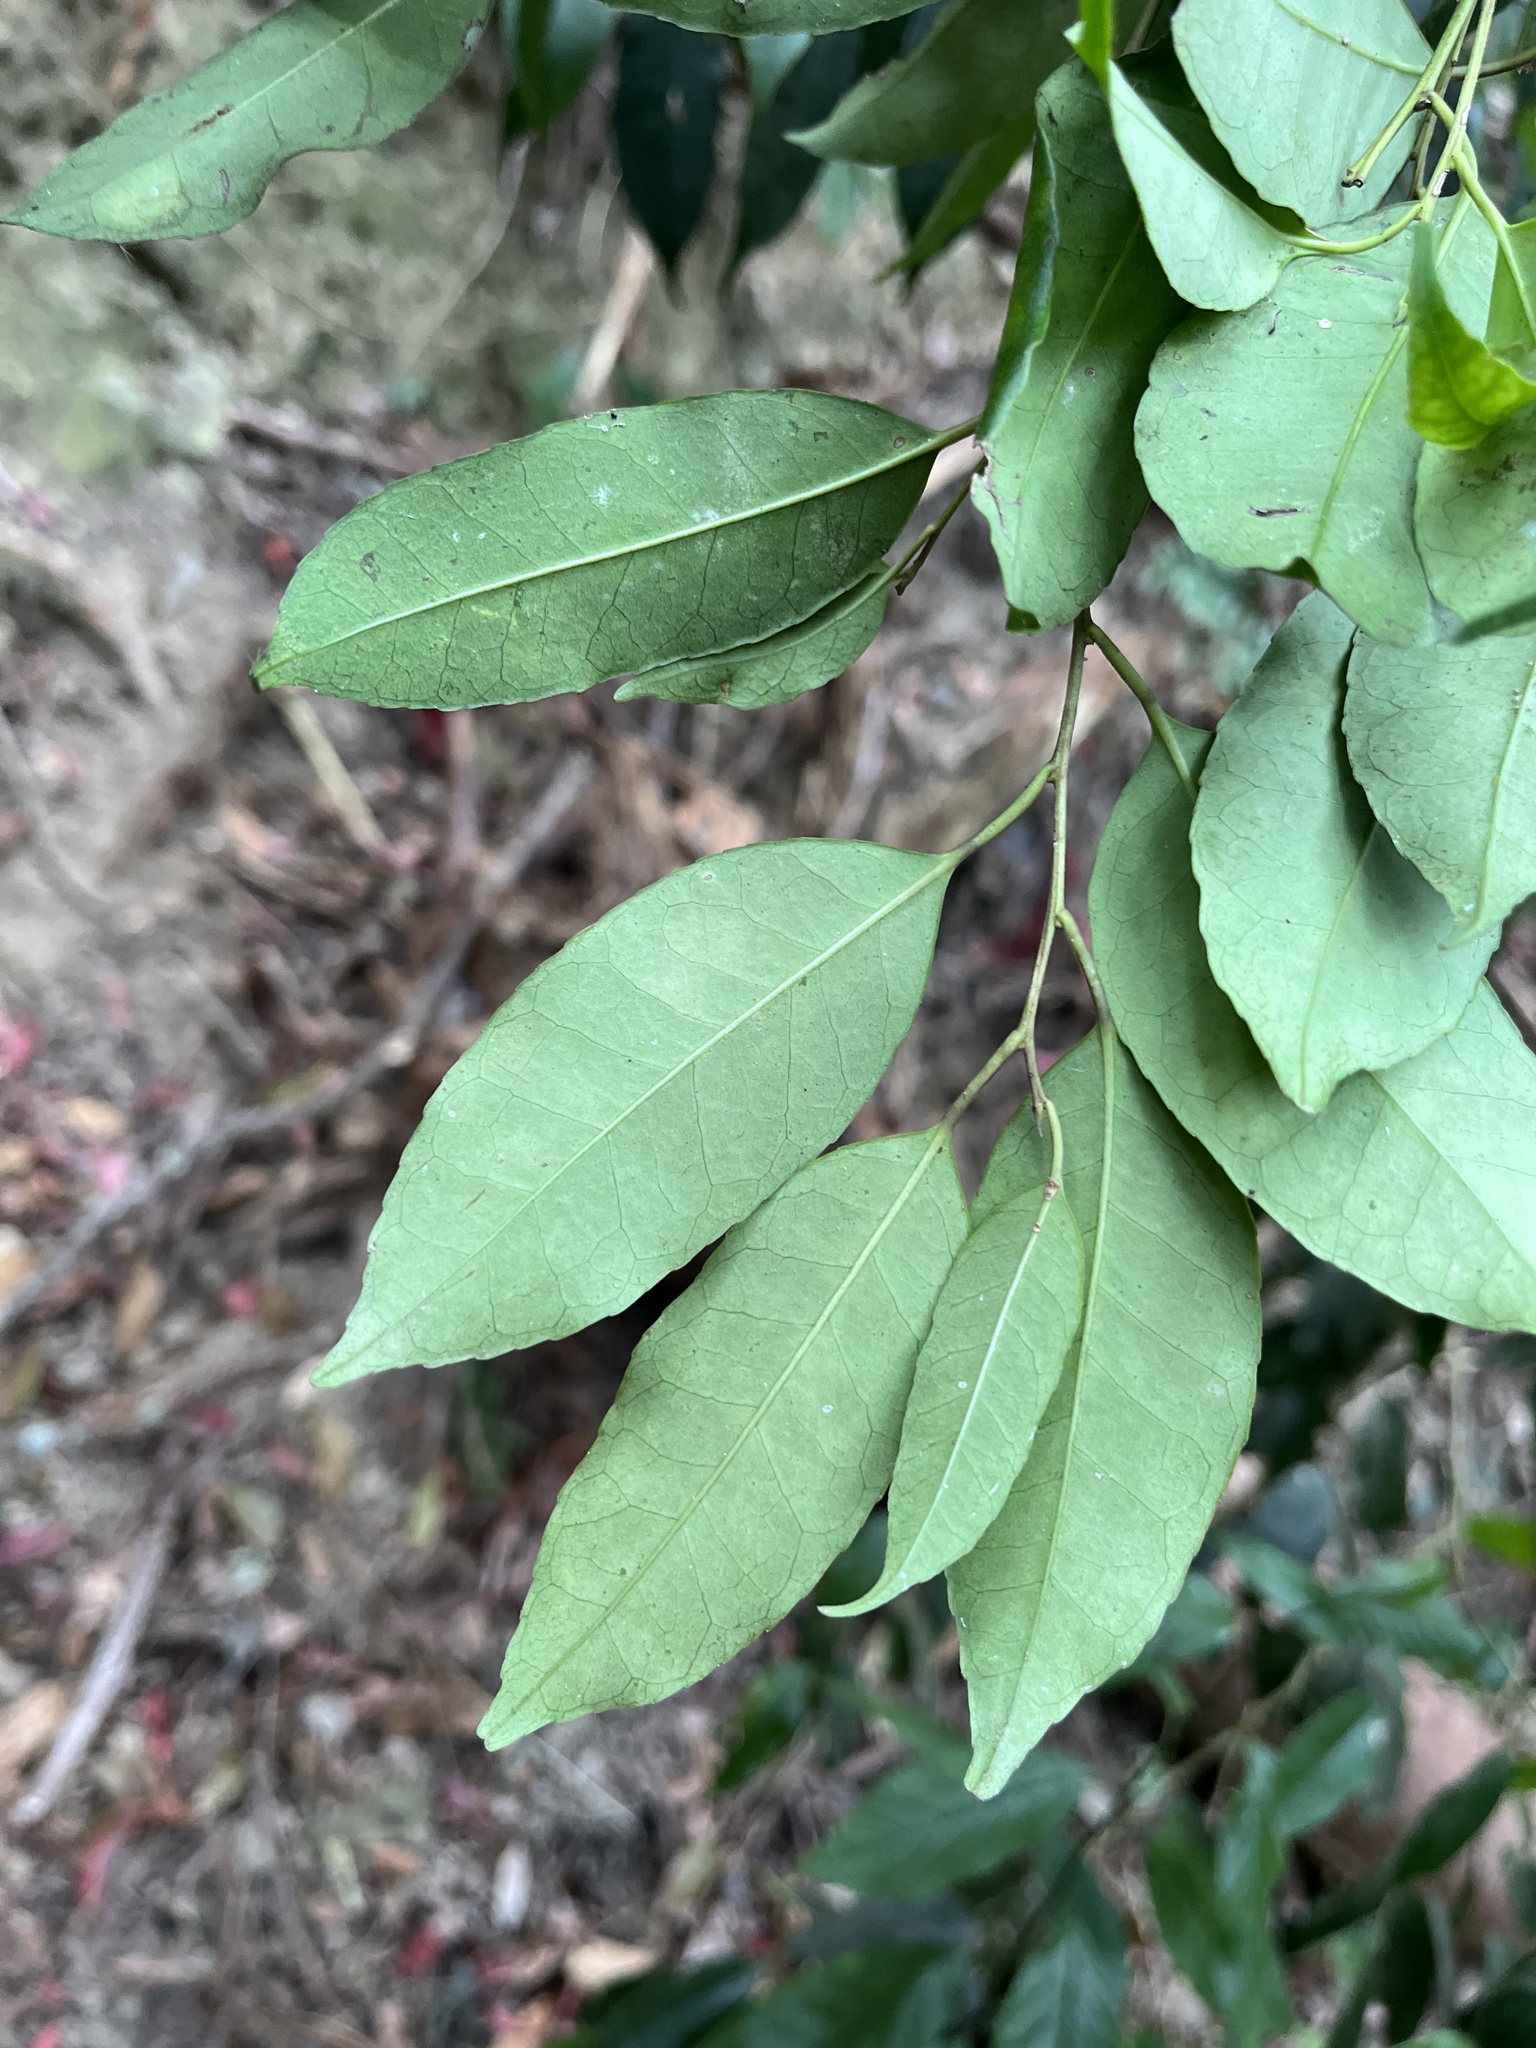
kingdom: Plantae
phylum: Tracheophyta
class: Magnoliopsida
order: Aquifoliales
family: Aquifoliaceae
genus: Ilex
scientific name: Ilex ficoidea
